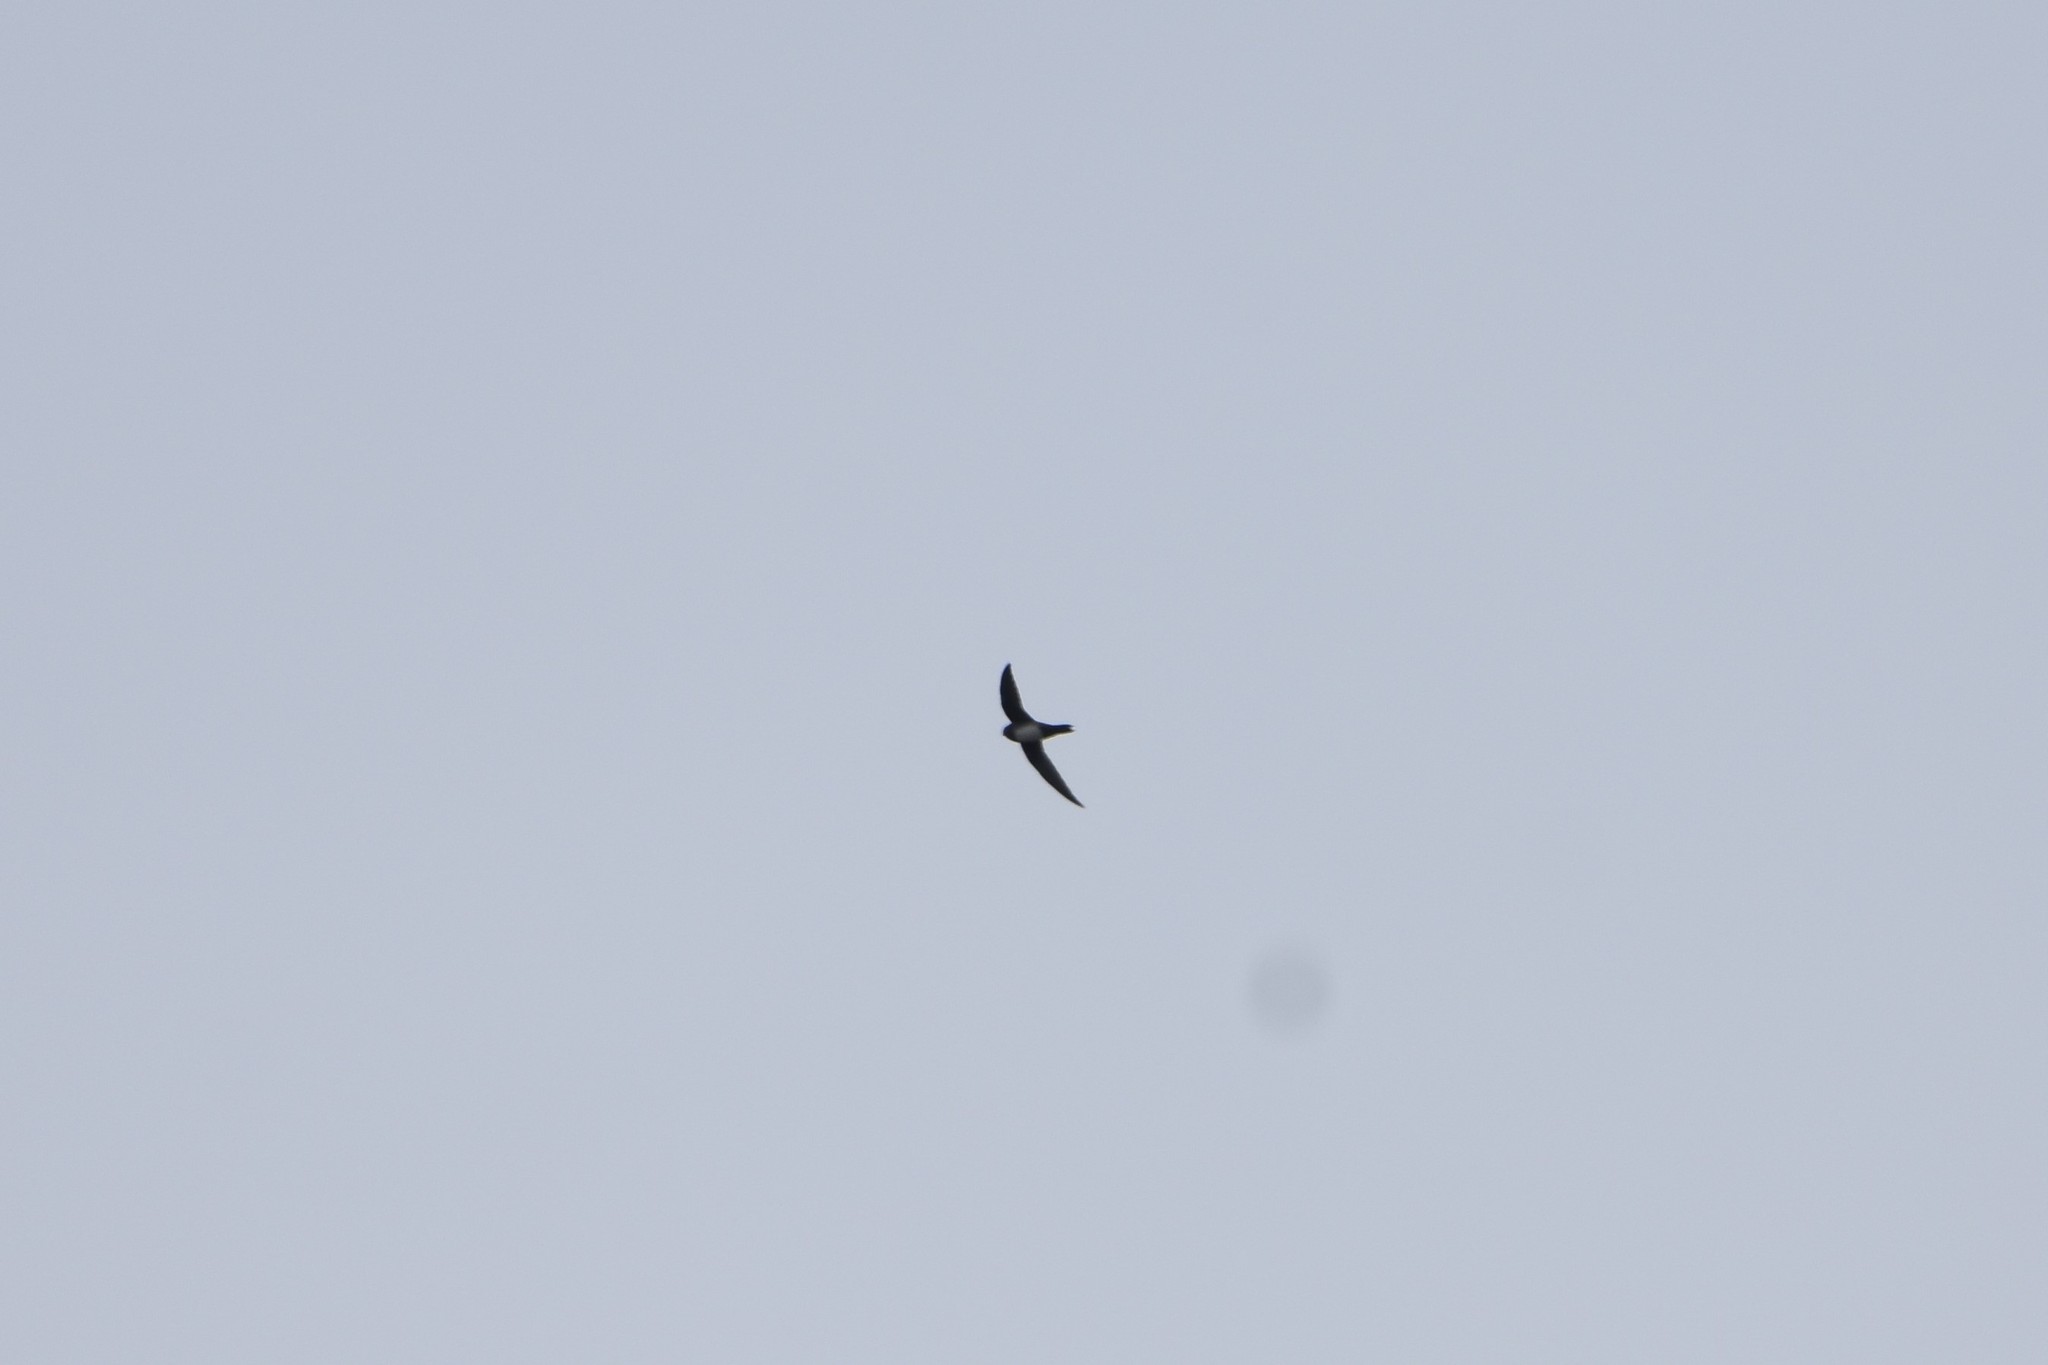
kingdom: Animalia
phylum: Chordata
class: Aves
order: Apodiformes
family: Apodidae
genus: Tachymarptis
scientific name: Tachymarptis melba
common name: Alpine swift
